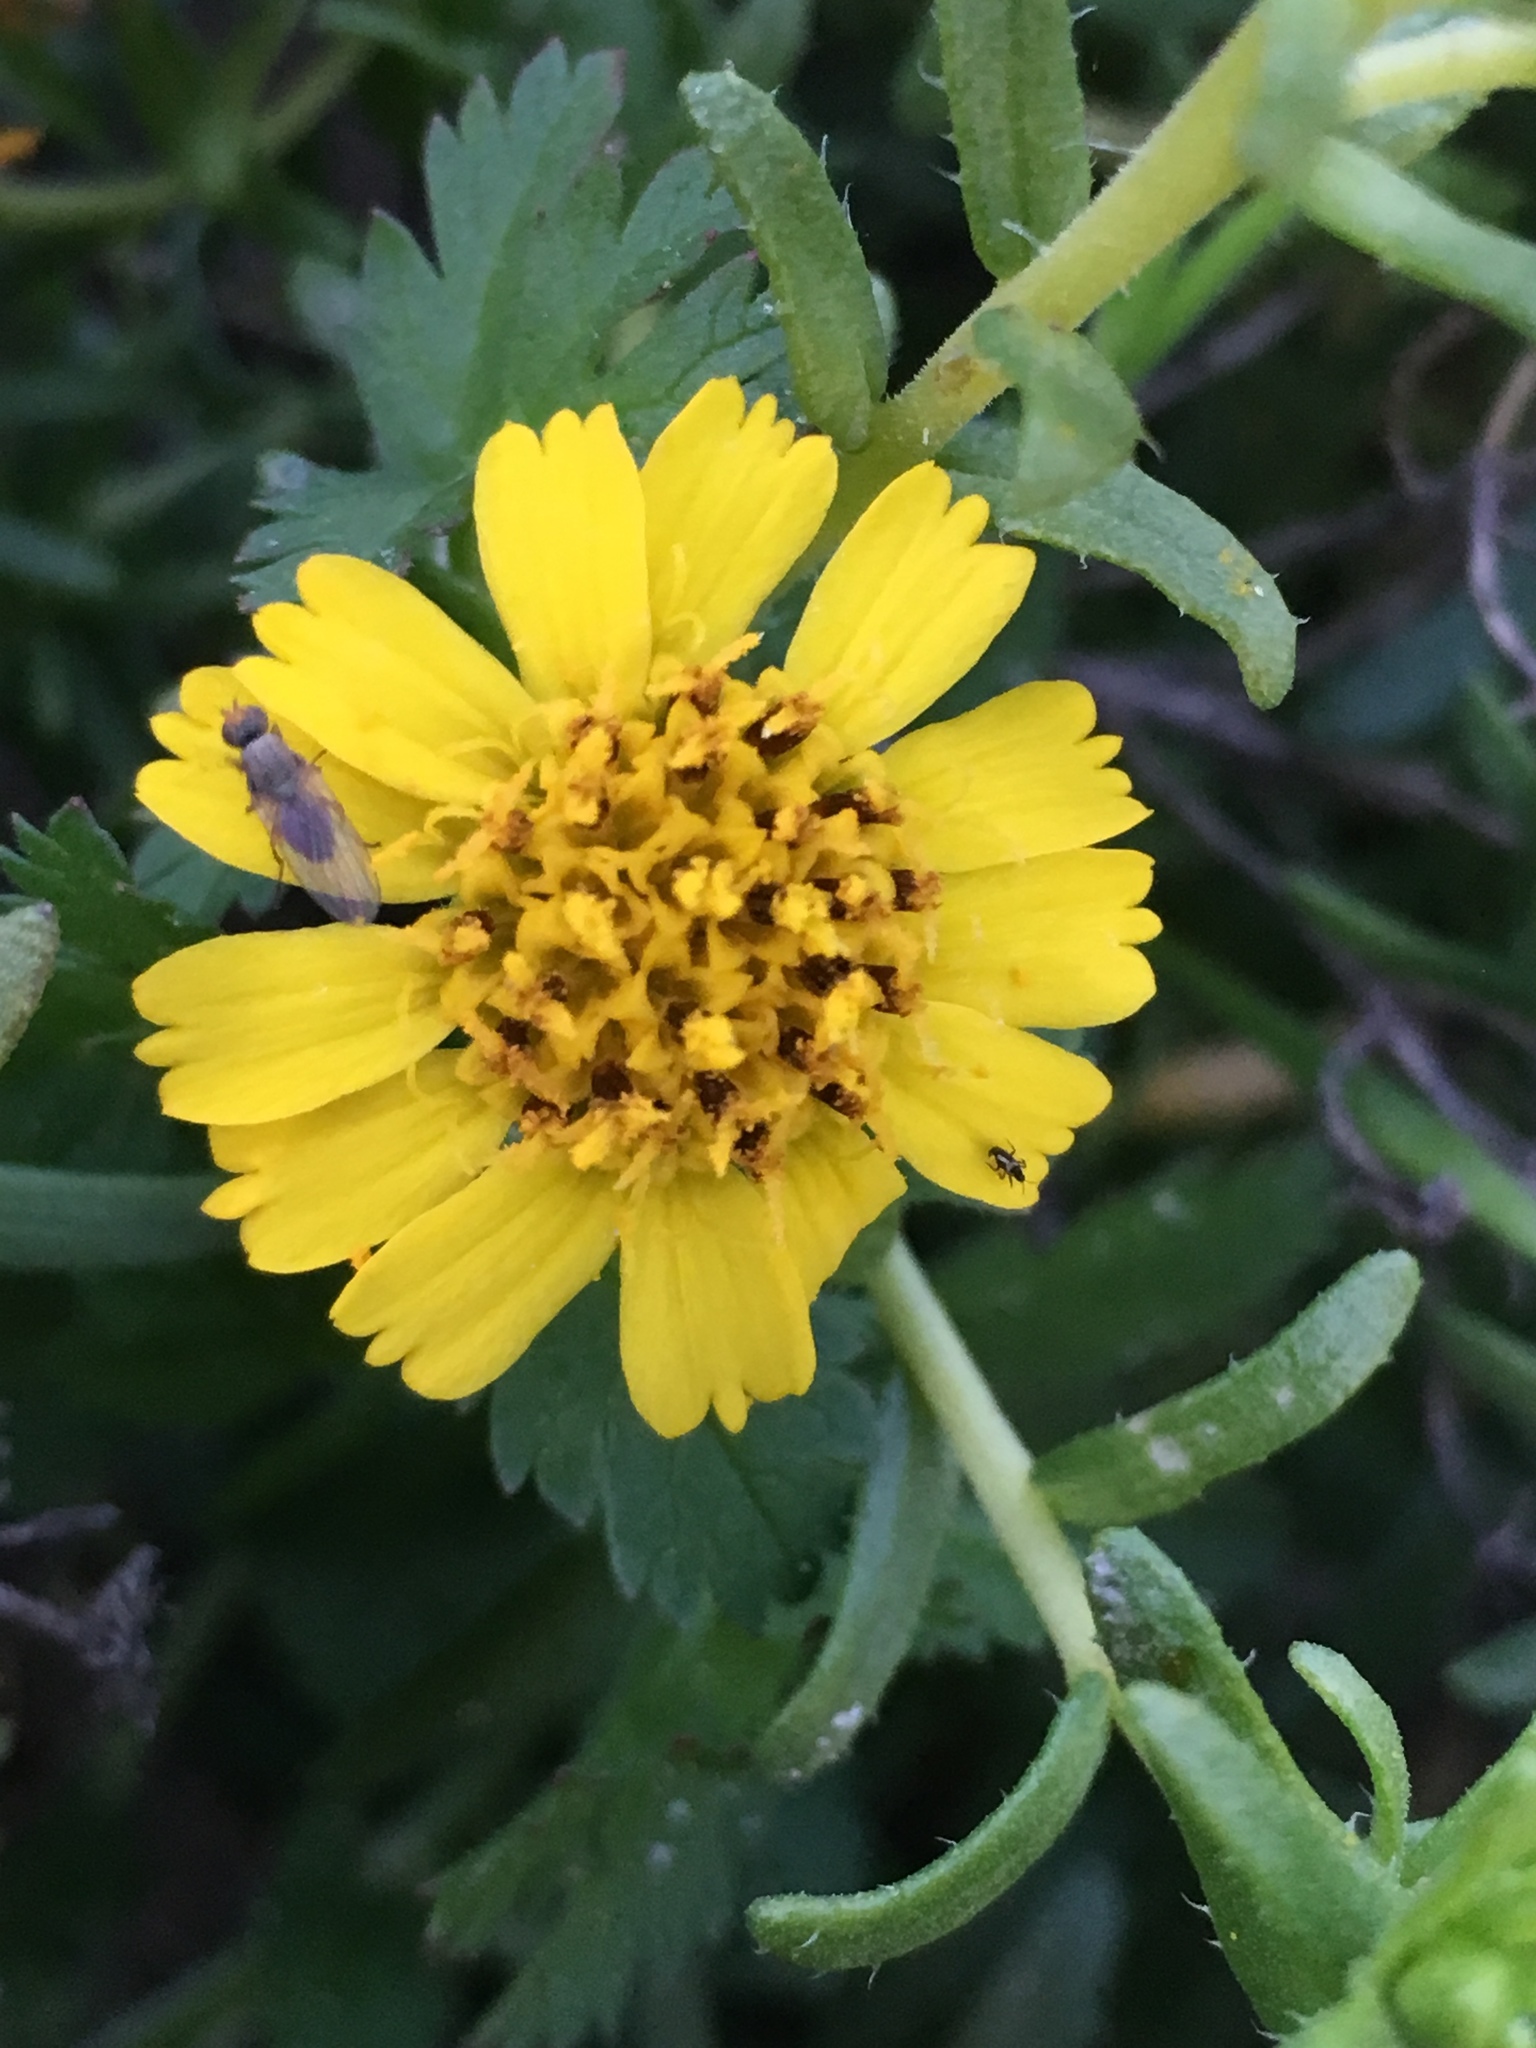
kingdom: Plantae
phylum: Tracheophyta
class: Magnoliopsida
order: Asterales
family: Asteraceae
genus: Deinandra
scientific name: Deinandra clementina
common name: Island tarplant
